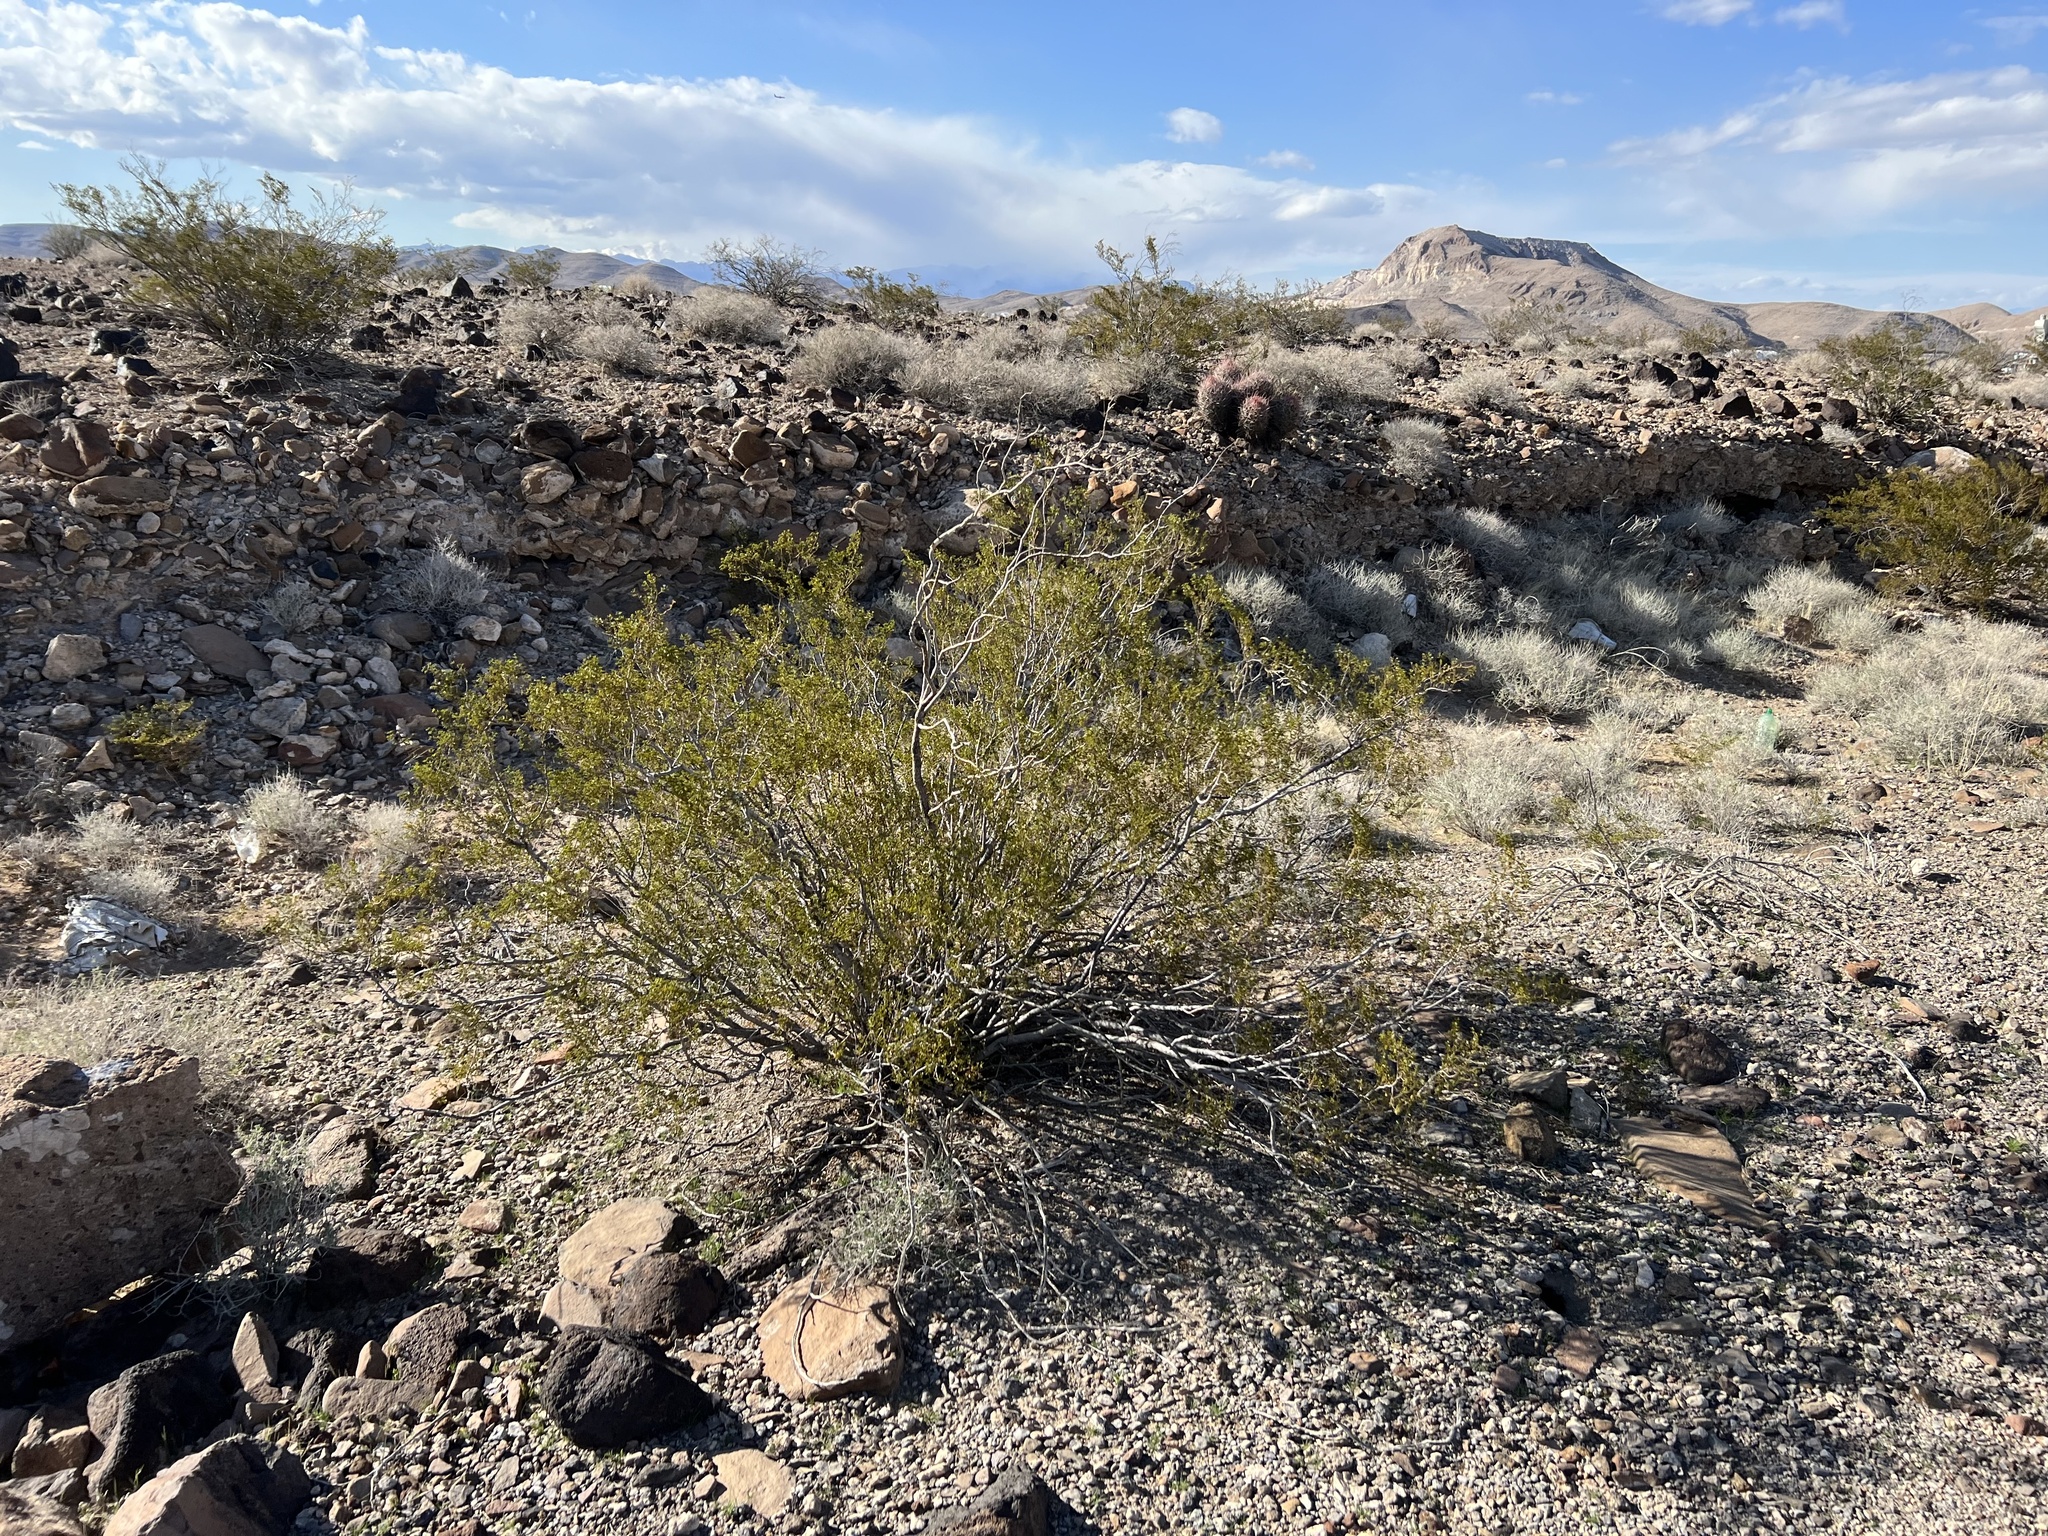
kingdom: Plantae
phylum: Tracheophyta
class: Magnoliopsida
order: Zygophyllales
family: Zygophyllaceae
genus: Larrea
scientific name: Larrea tridentata
